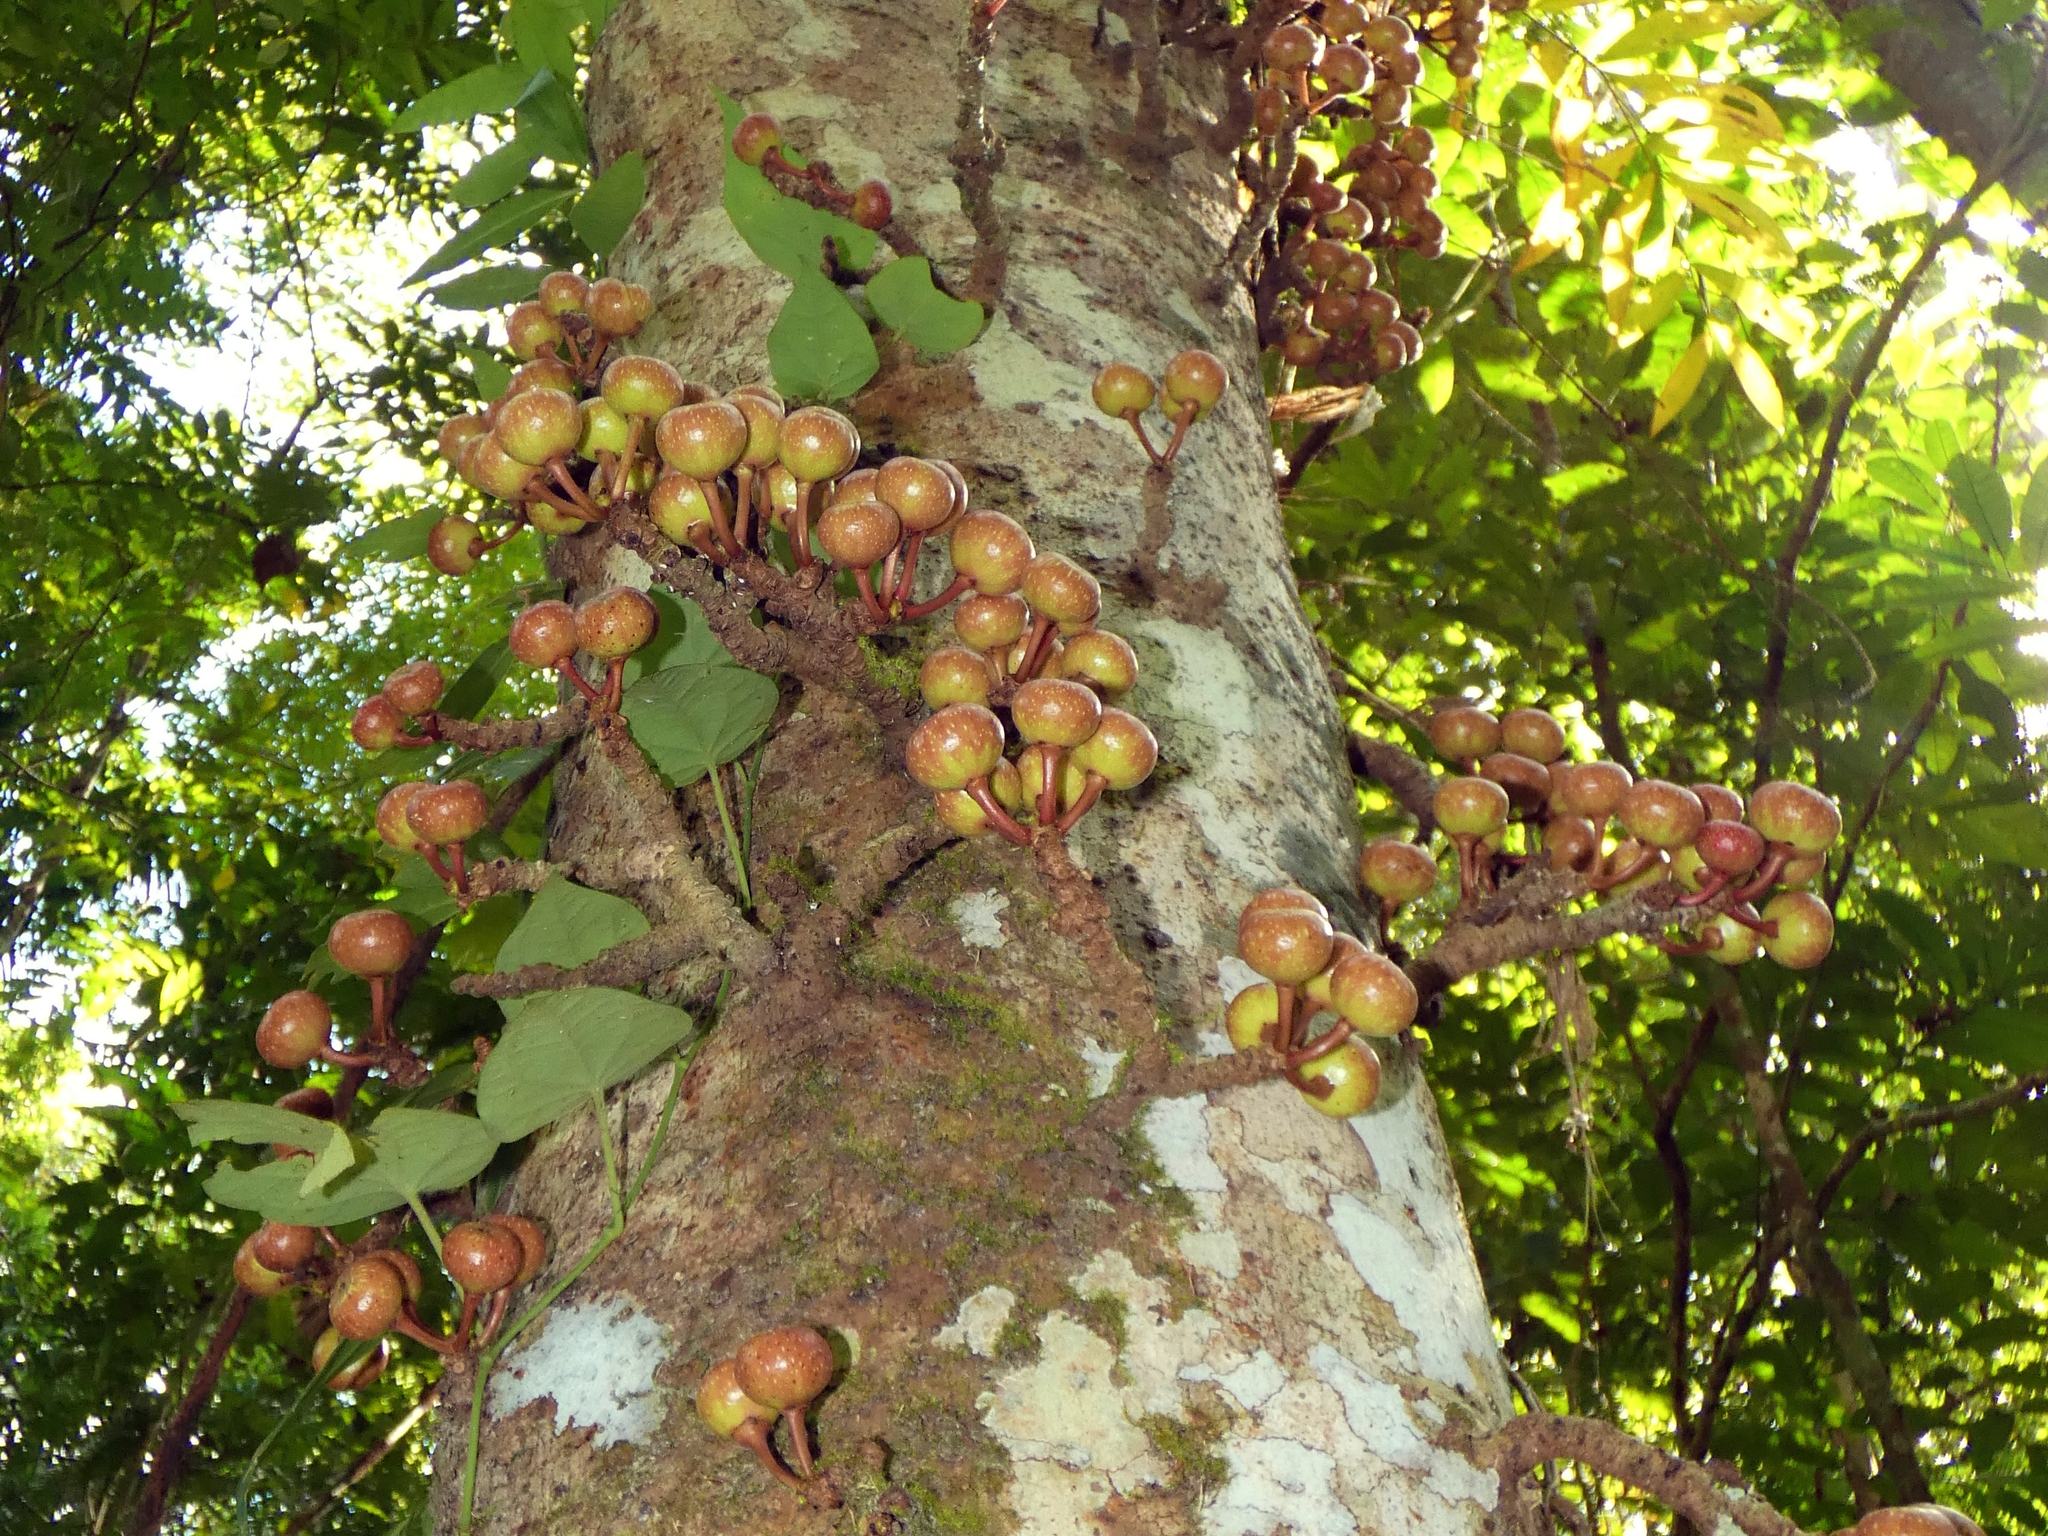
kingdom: Plantae
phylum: Tracheophyta
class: Magnoliopsida
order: Rosales
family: Moraceae
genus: Ficus
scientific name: Ficus variegata
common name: Variegated fig
